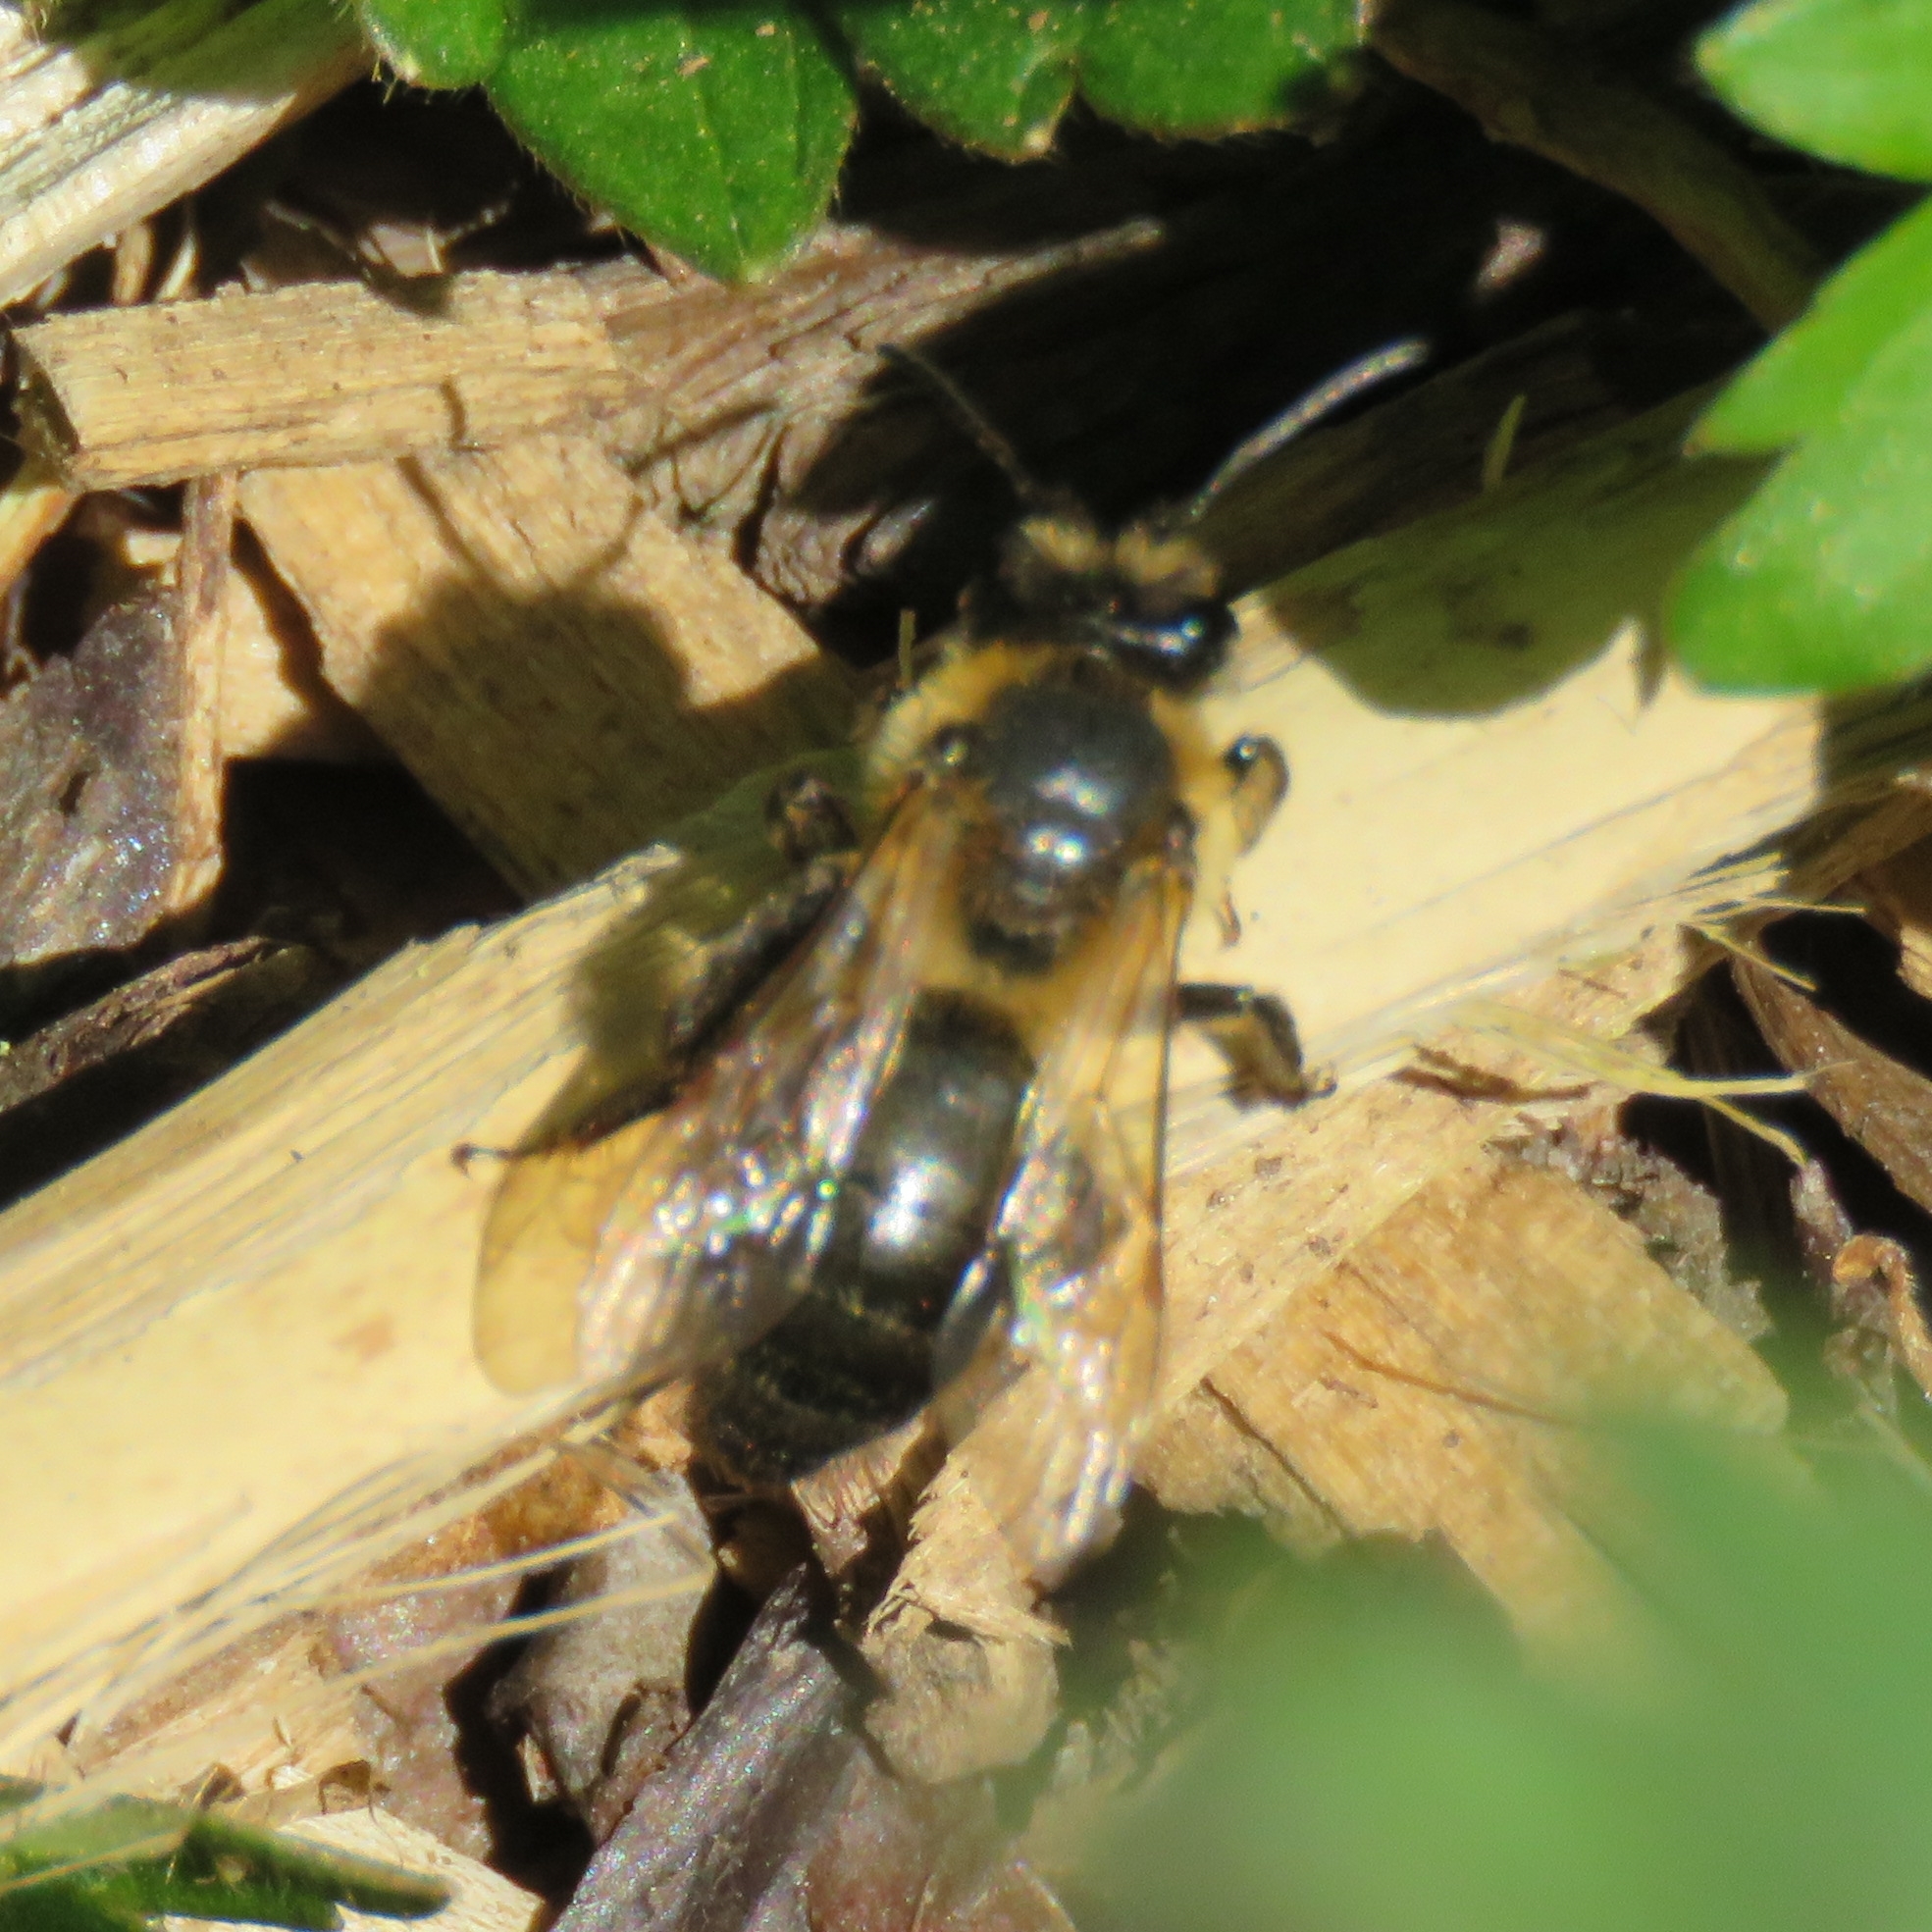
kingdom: Animalia
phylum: Arthropoda
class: Insecta
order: Hymenoptera
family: Andrenidae
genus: Andrena
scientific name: Andrena carantonica
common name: Chocolate mining bee
